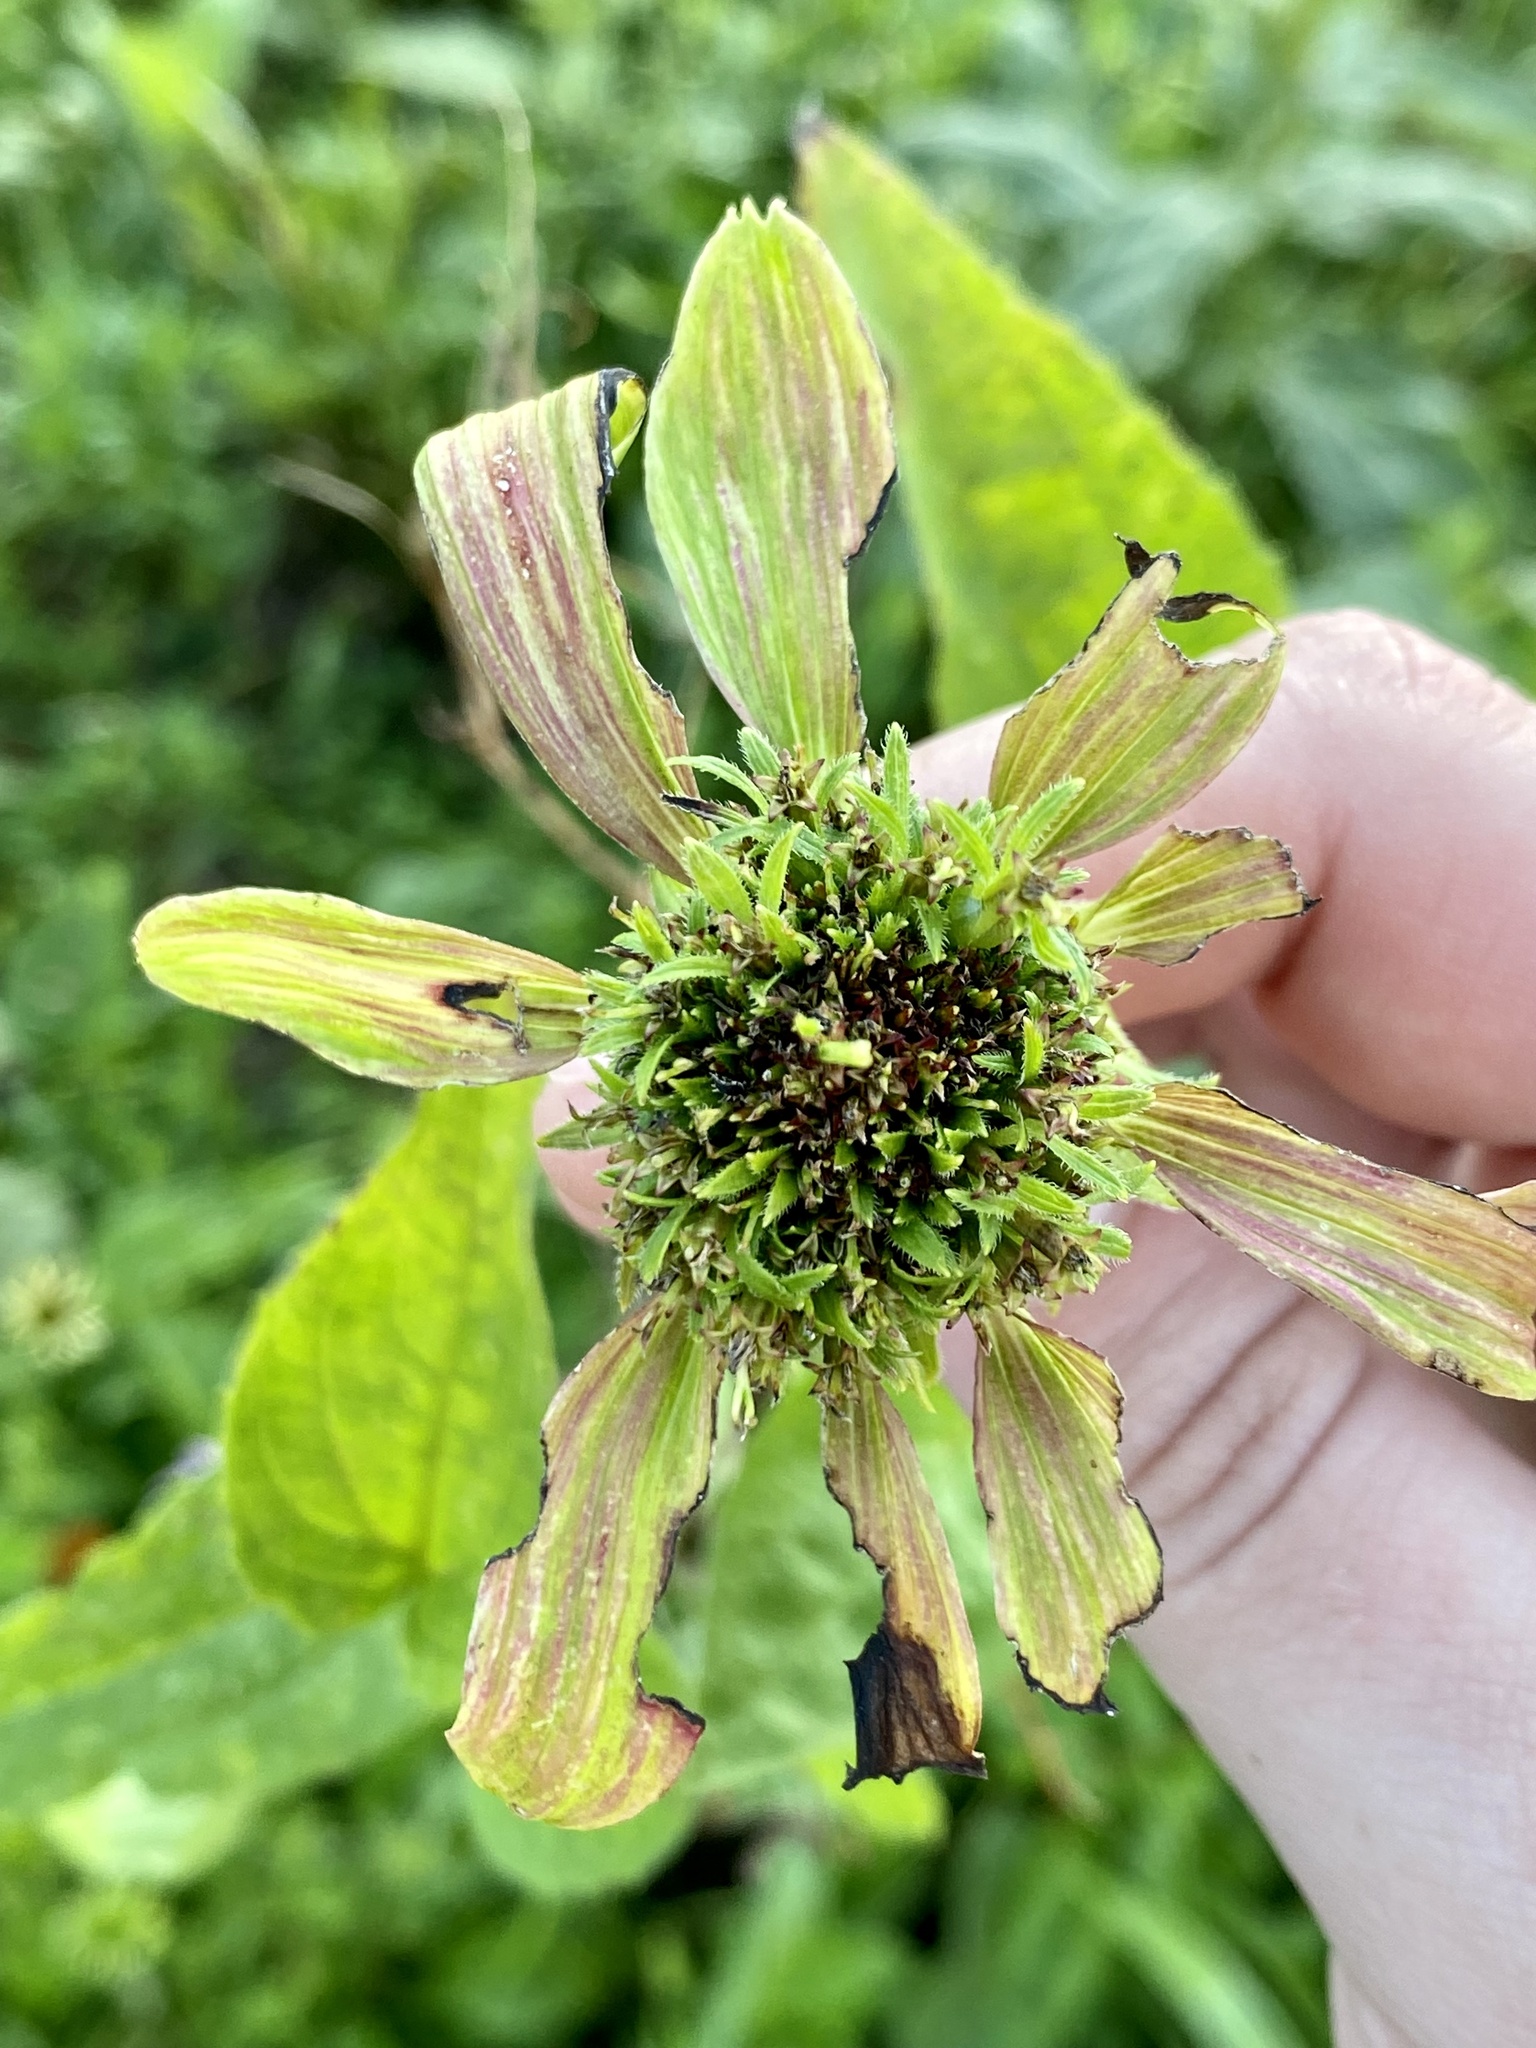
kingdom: Bacteria
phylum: Firmicutes
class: Bacilli
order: Acholeplasmatales
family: Acholeplasmataceae
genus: Phytoplasma
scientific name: Phytoplasma
